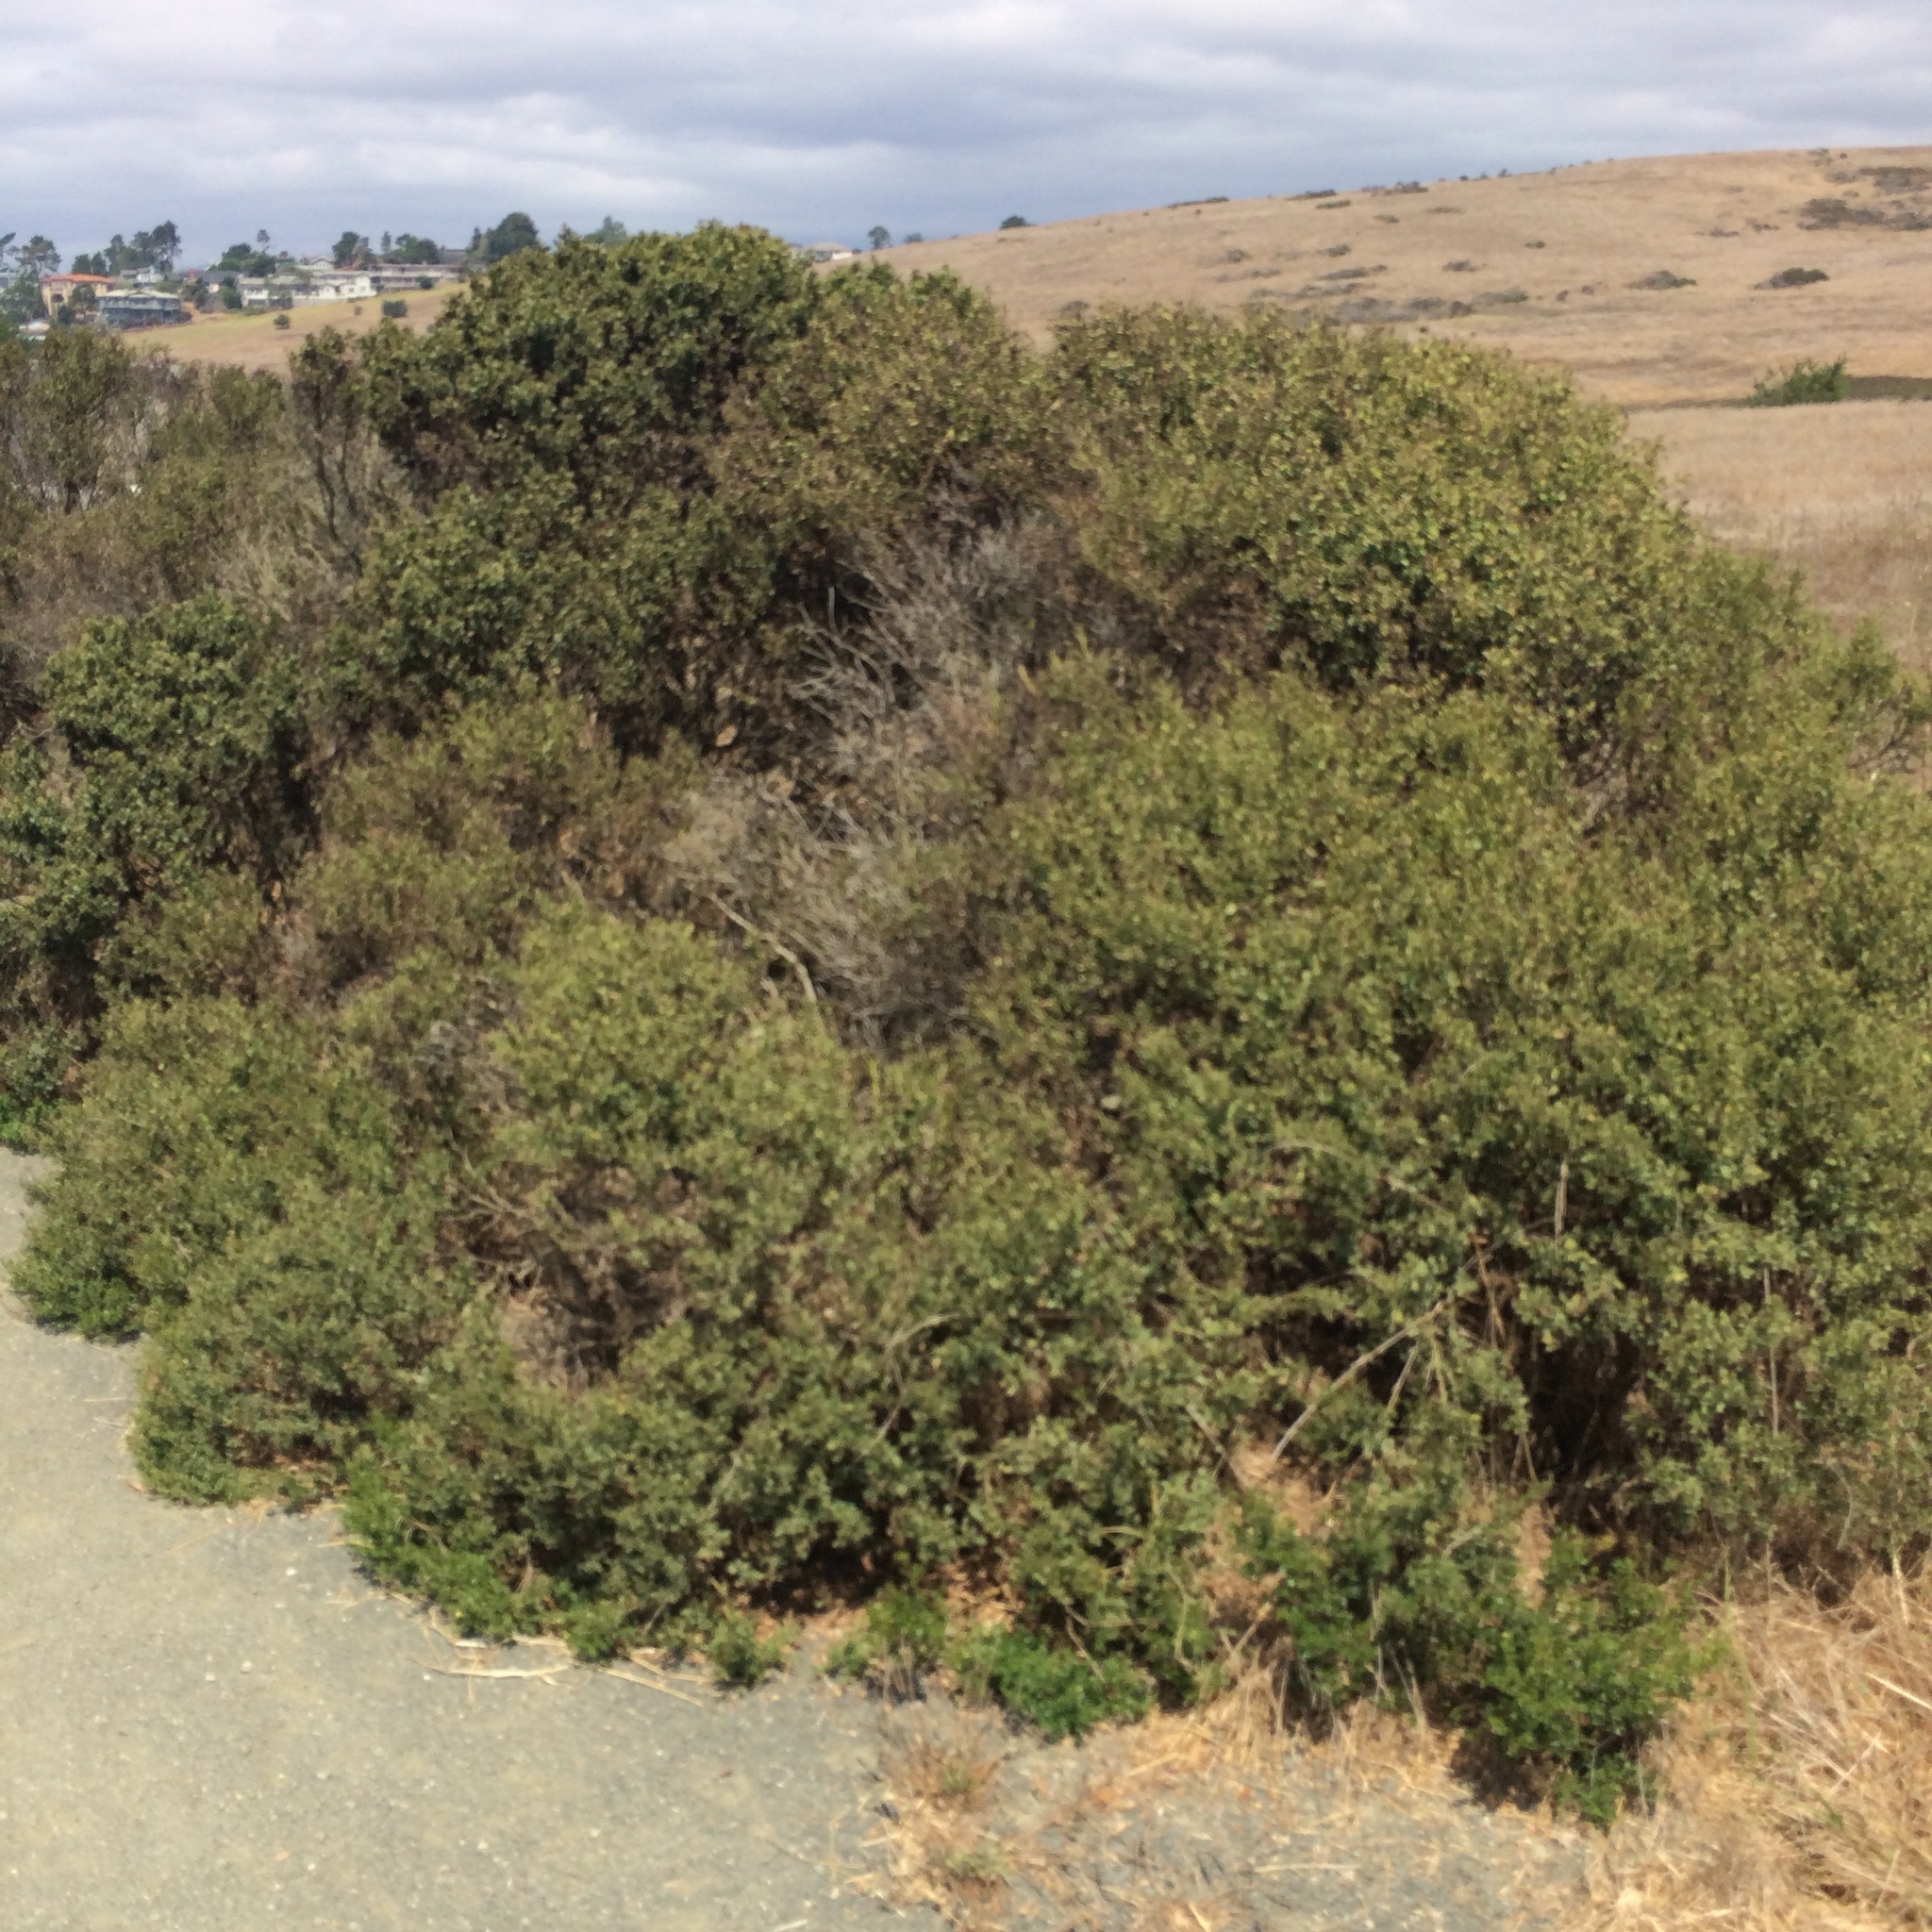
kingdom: Plantae
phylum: Tracheophyta
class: Magnoliopsida
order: Asterales
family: Asteraceae
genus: Baccharis
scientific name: Baccharis pilularis
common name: Coyotebrush
